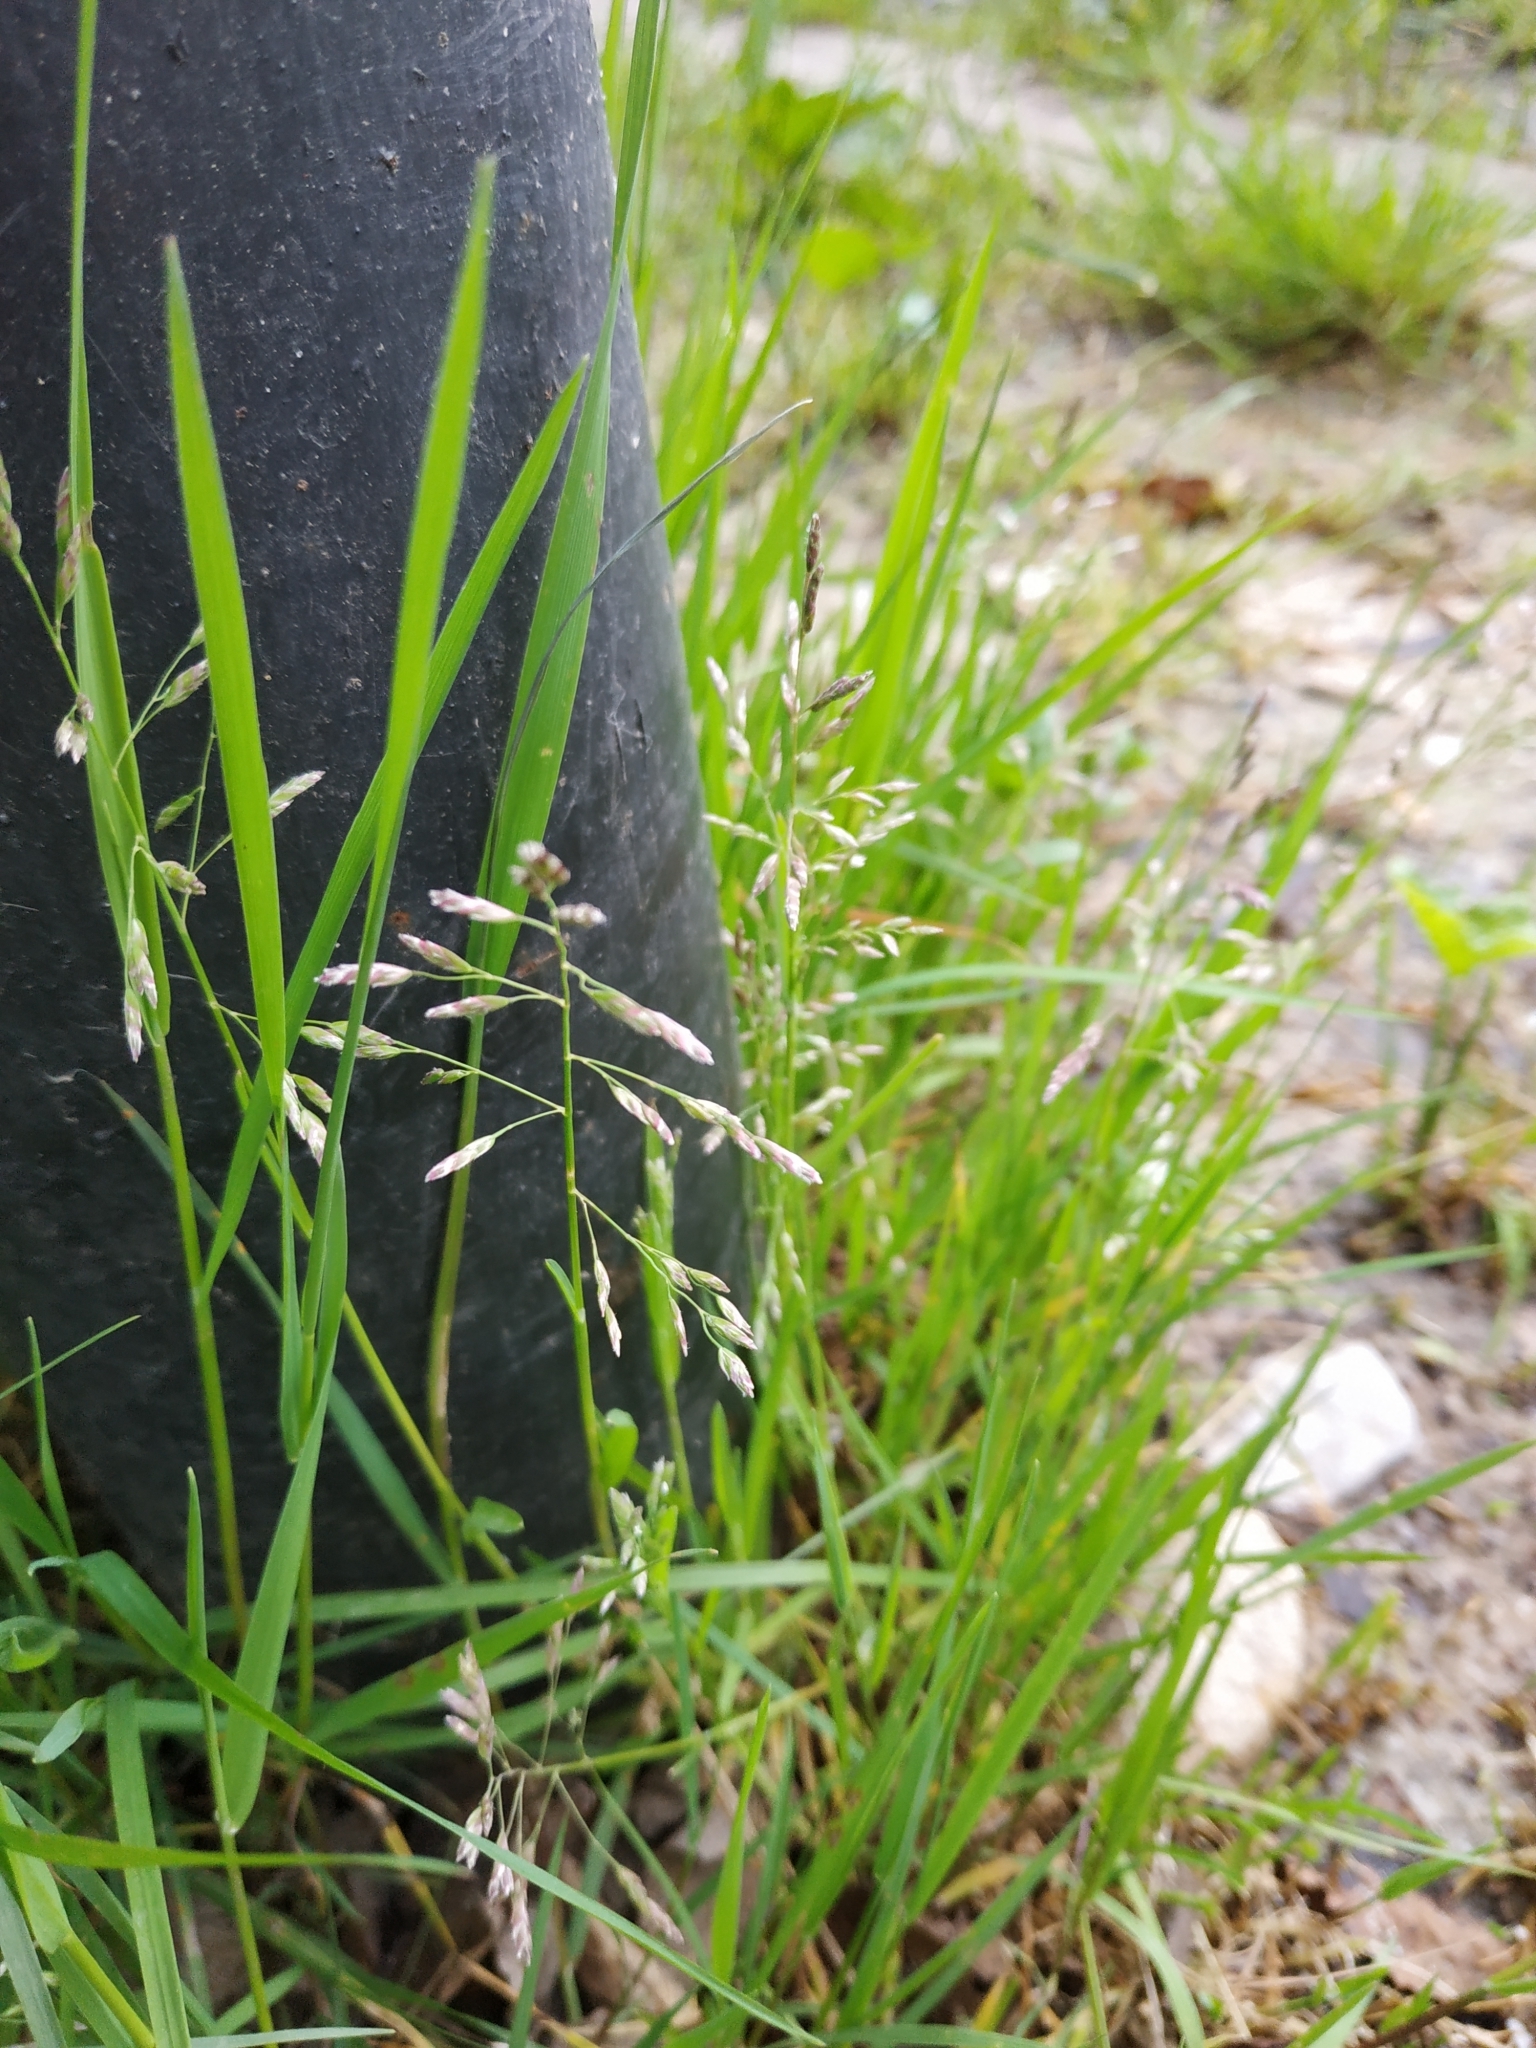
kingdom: Plantae
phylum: Tracheophyta
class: Liliopsida
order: Poales
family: Poaceae
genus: Poa
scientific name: Poa annua
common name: Annual bluegrass
